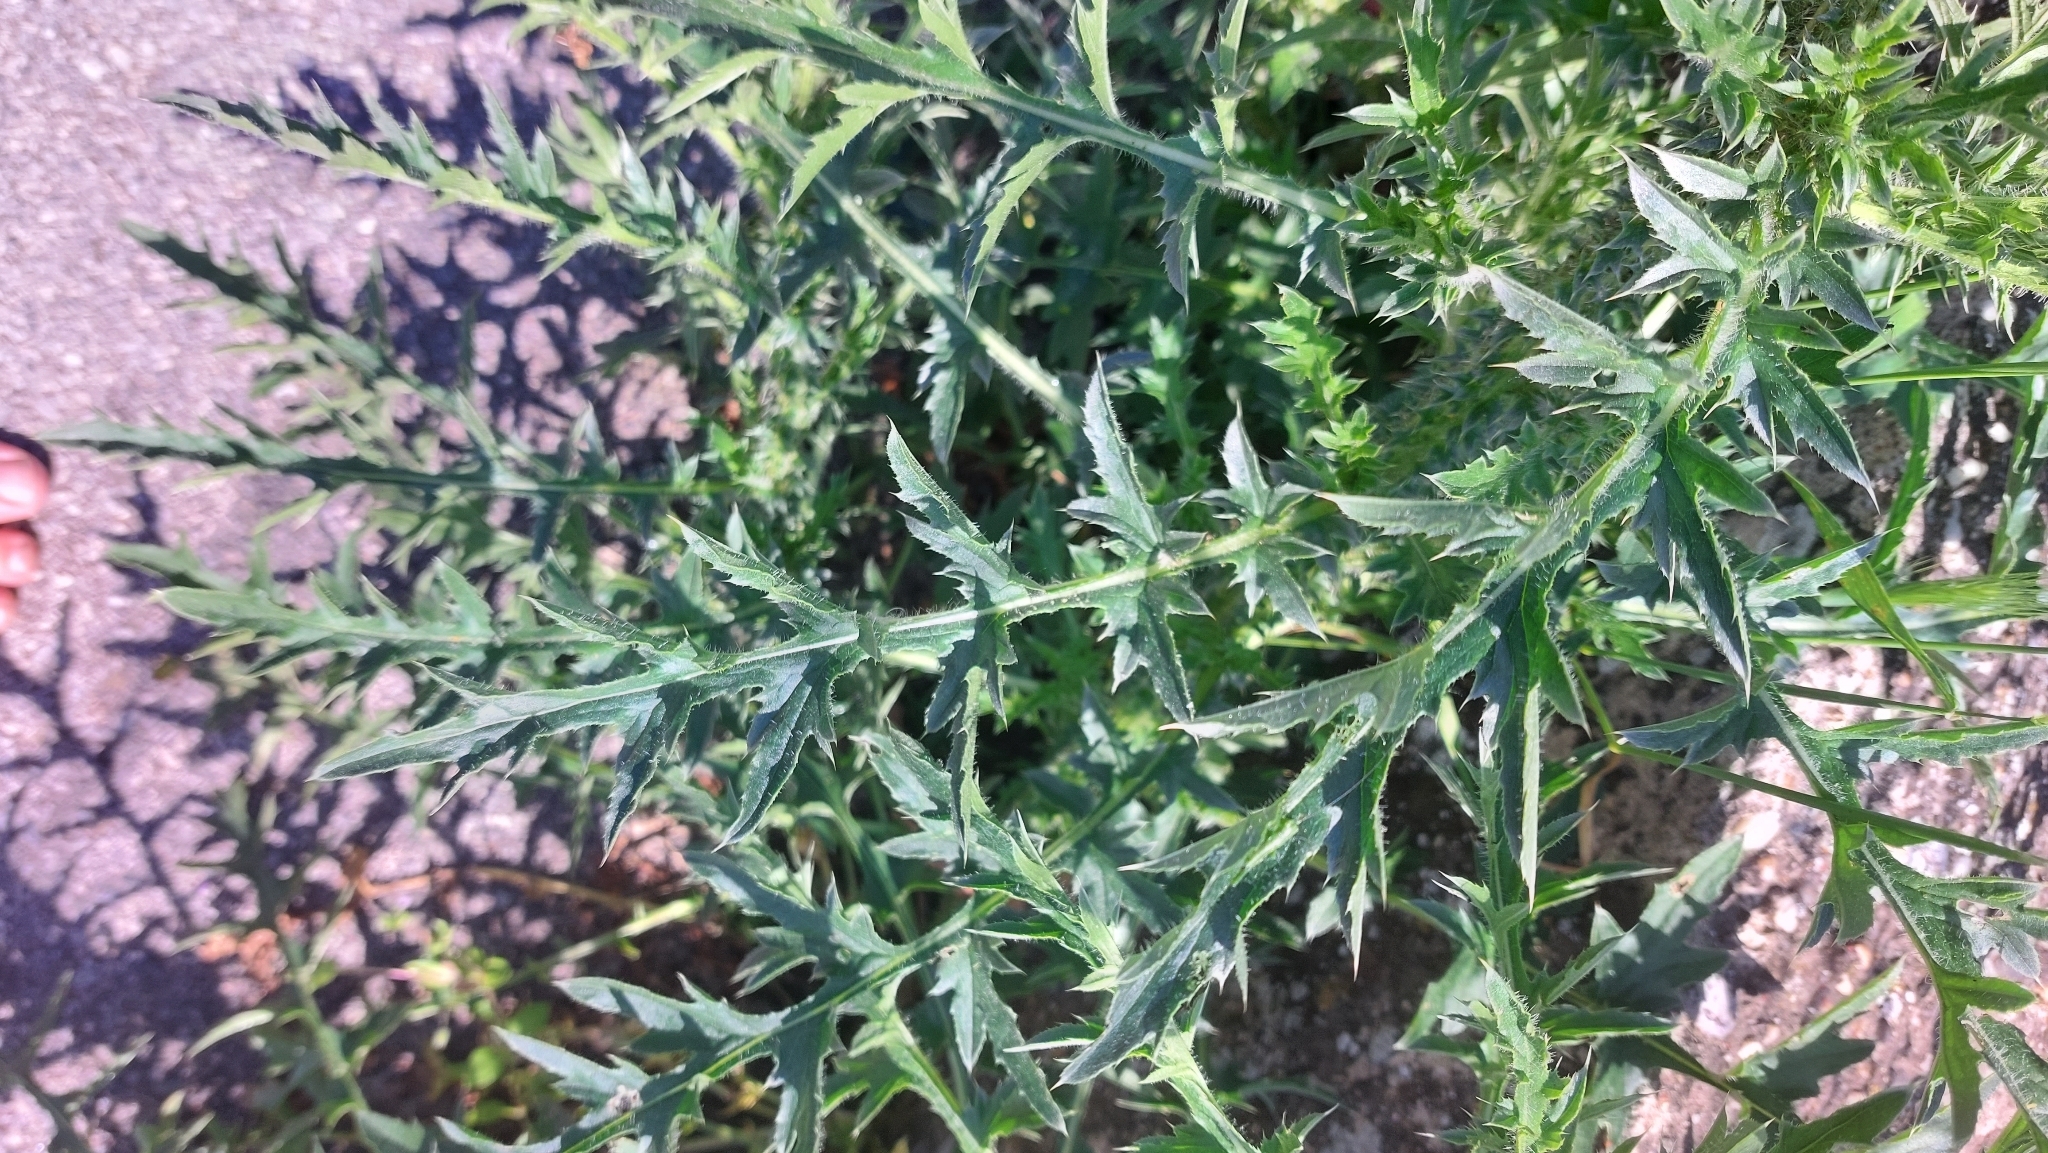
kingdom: Plantae
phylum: Tracheophyta
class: Magnoliopsida
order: Asterales
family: Asteraceae
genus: Carduus
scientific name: Carduus acanthoides
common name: Plumeless thistle
